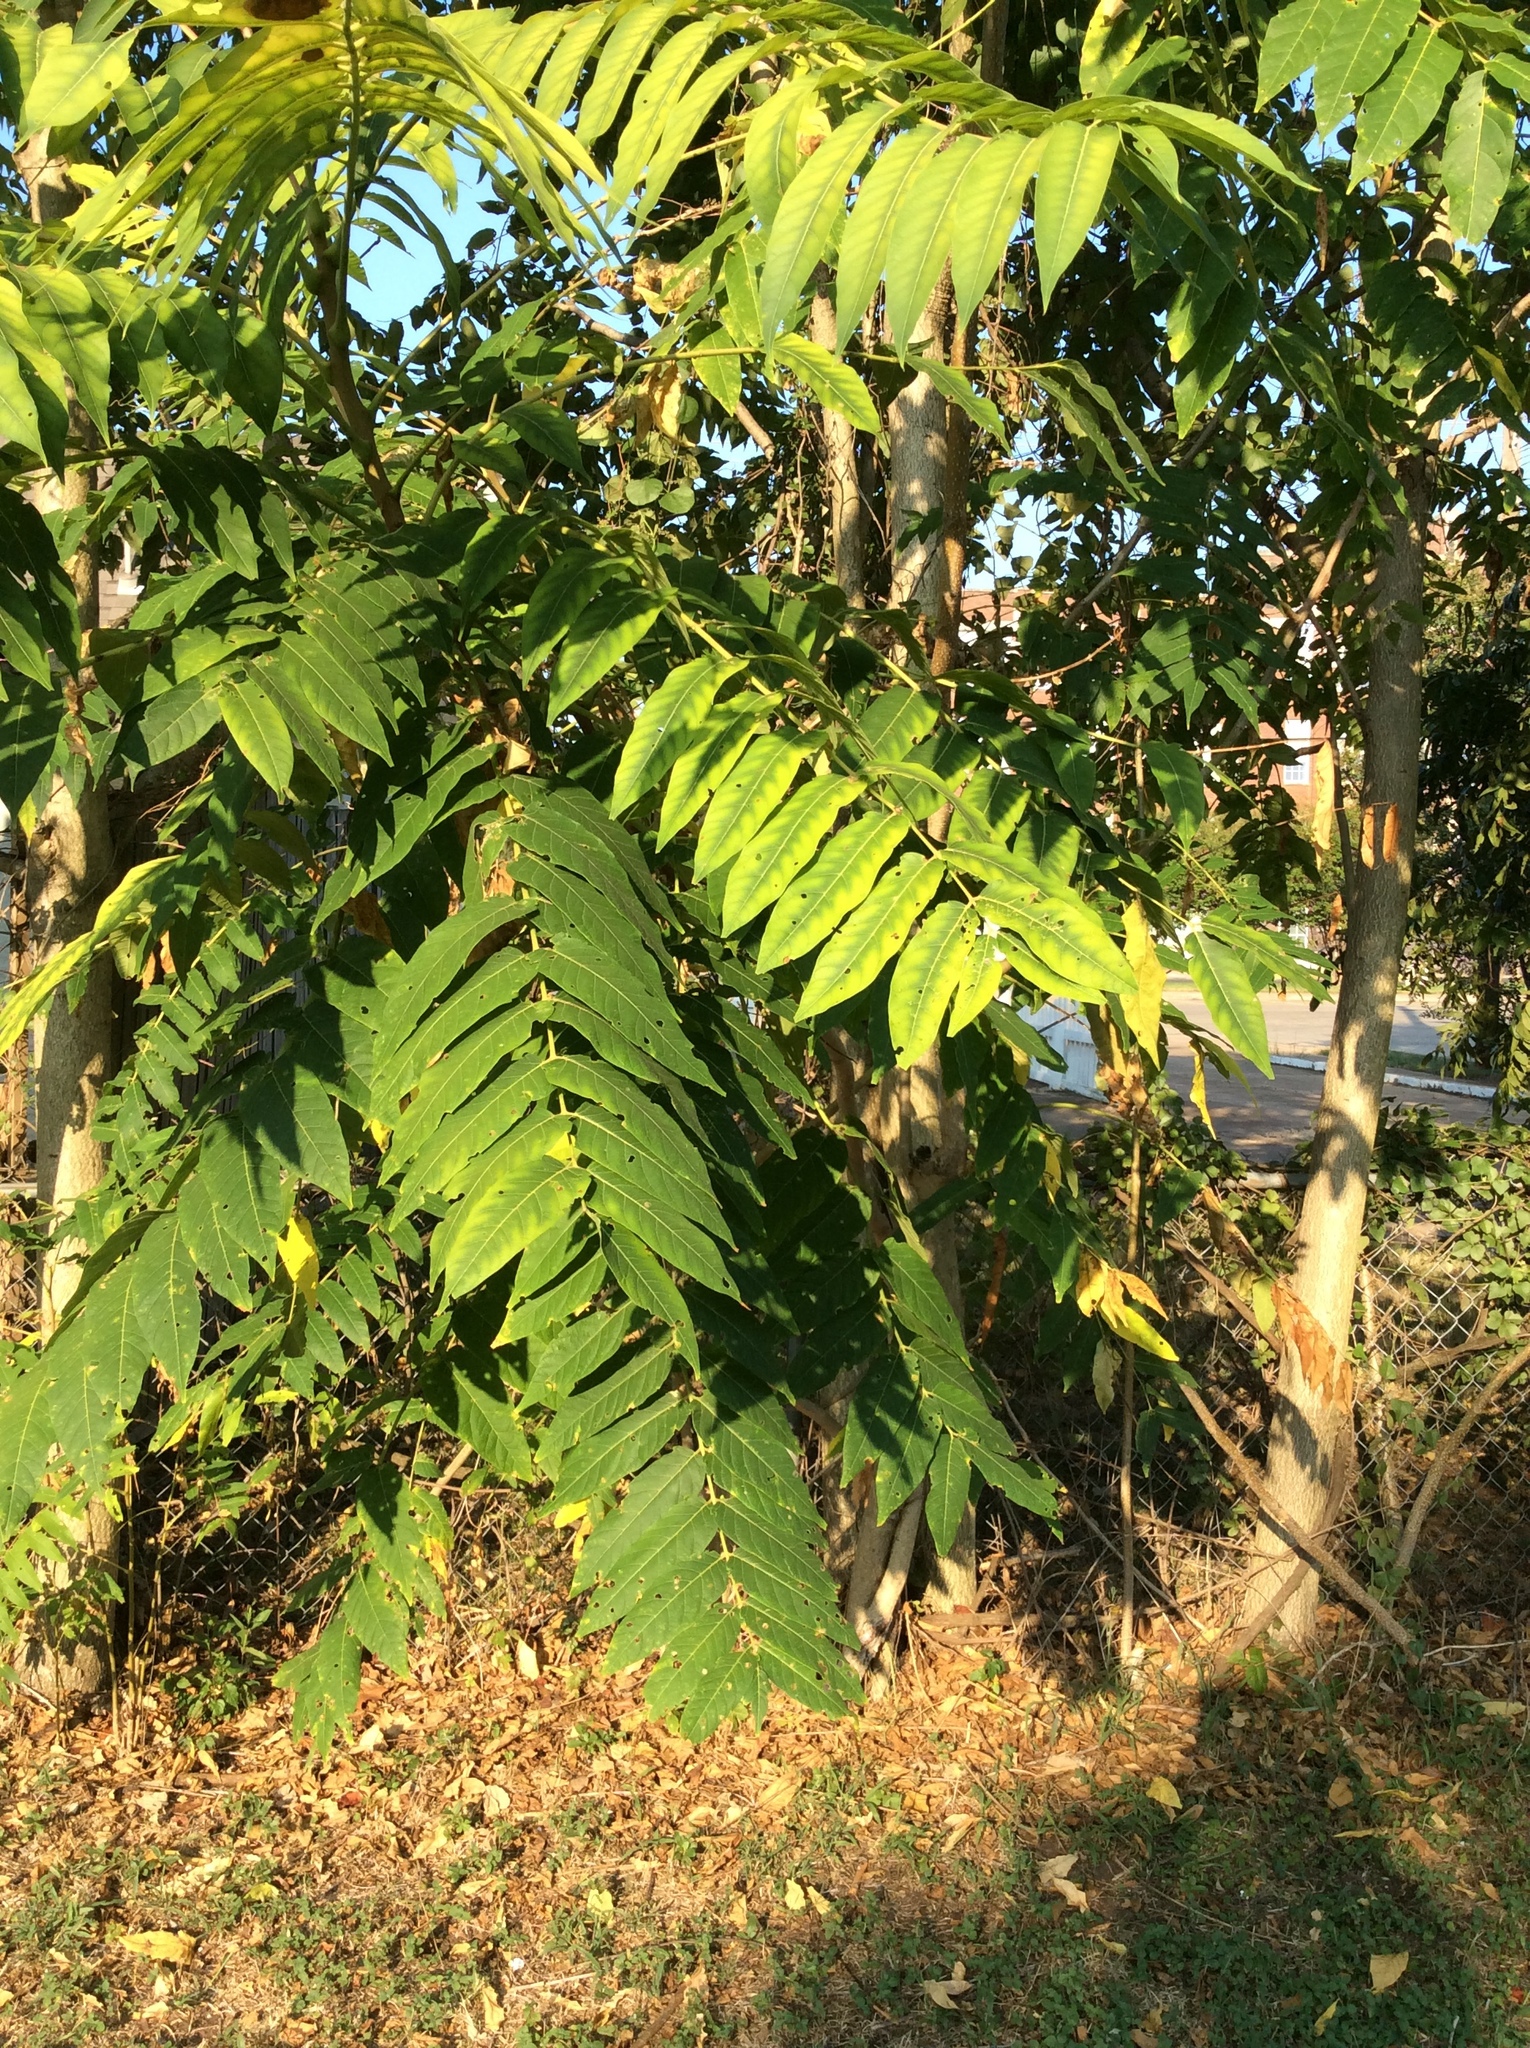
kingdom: Plantae
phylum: Tracheophyta
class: Magnoliopsida
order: Sapindales
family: Simaroubaceae
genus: Ailanthus
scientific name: Ailanthus altissima
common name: Tree-of-heaven
